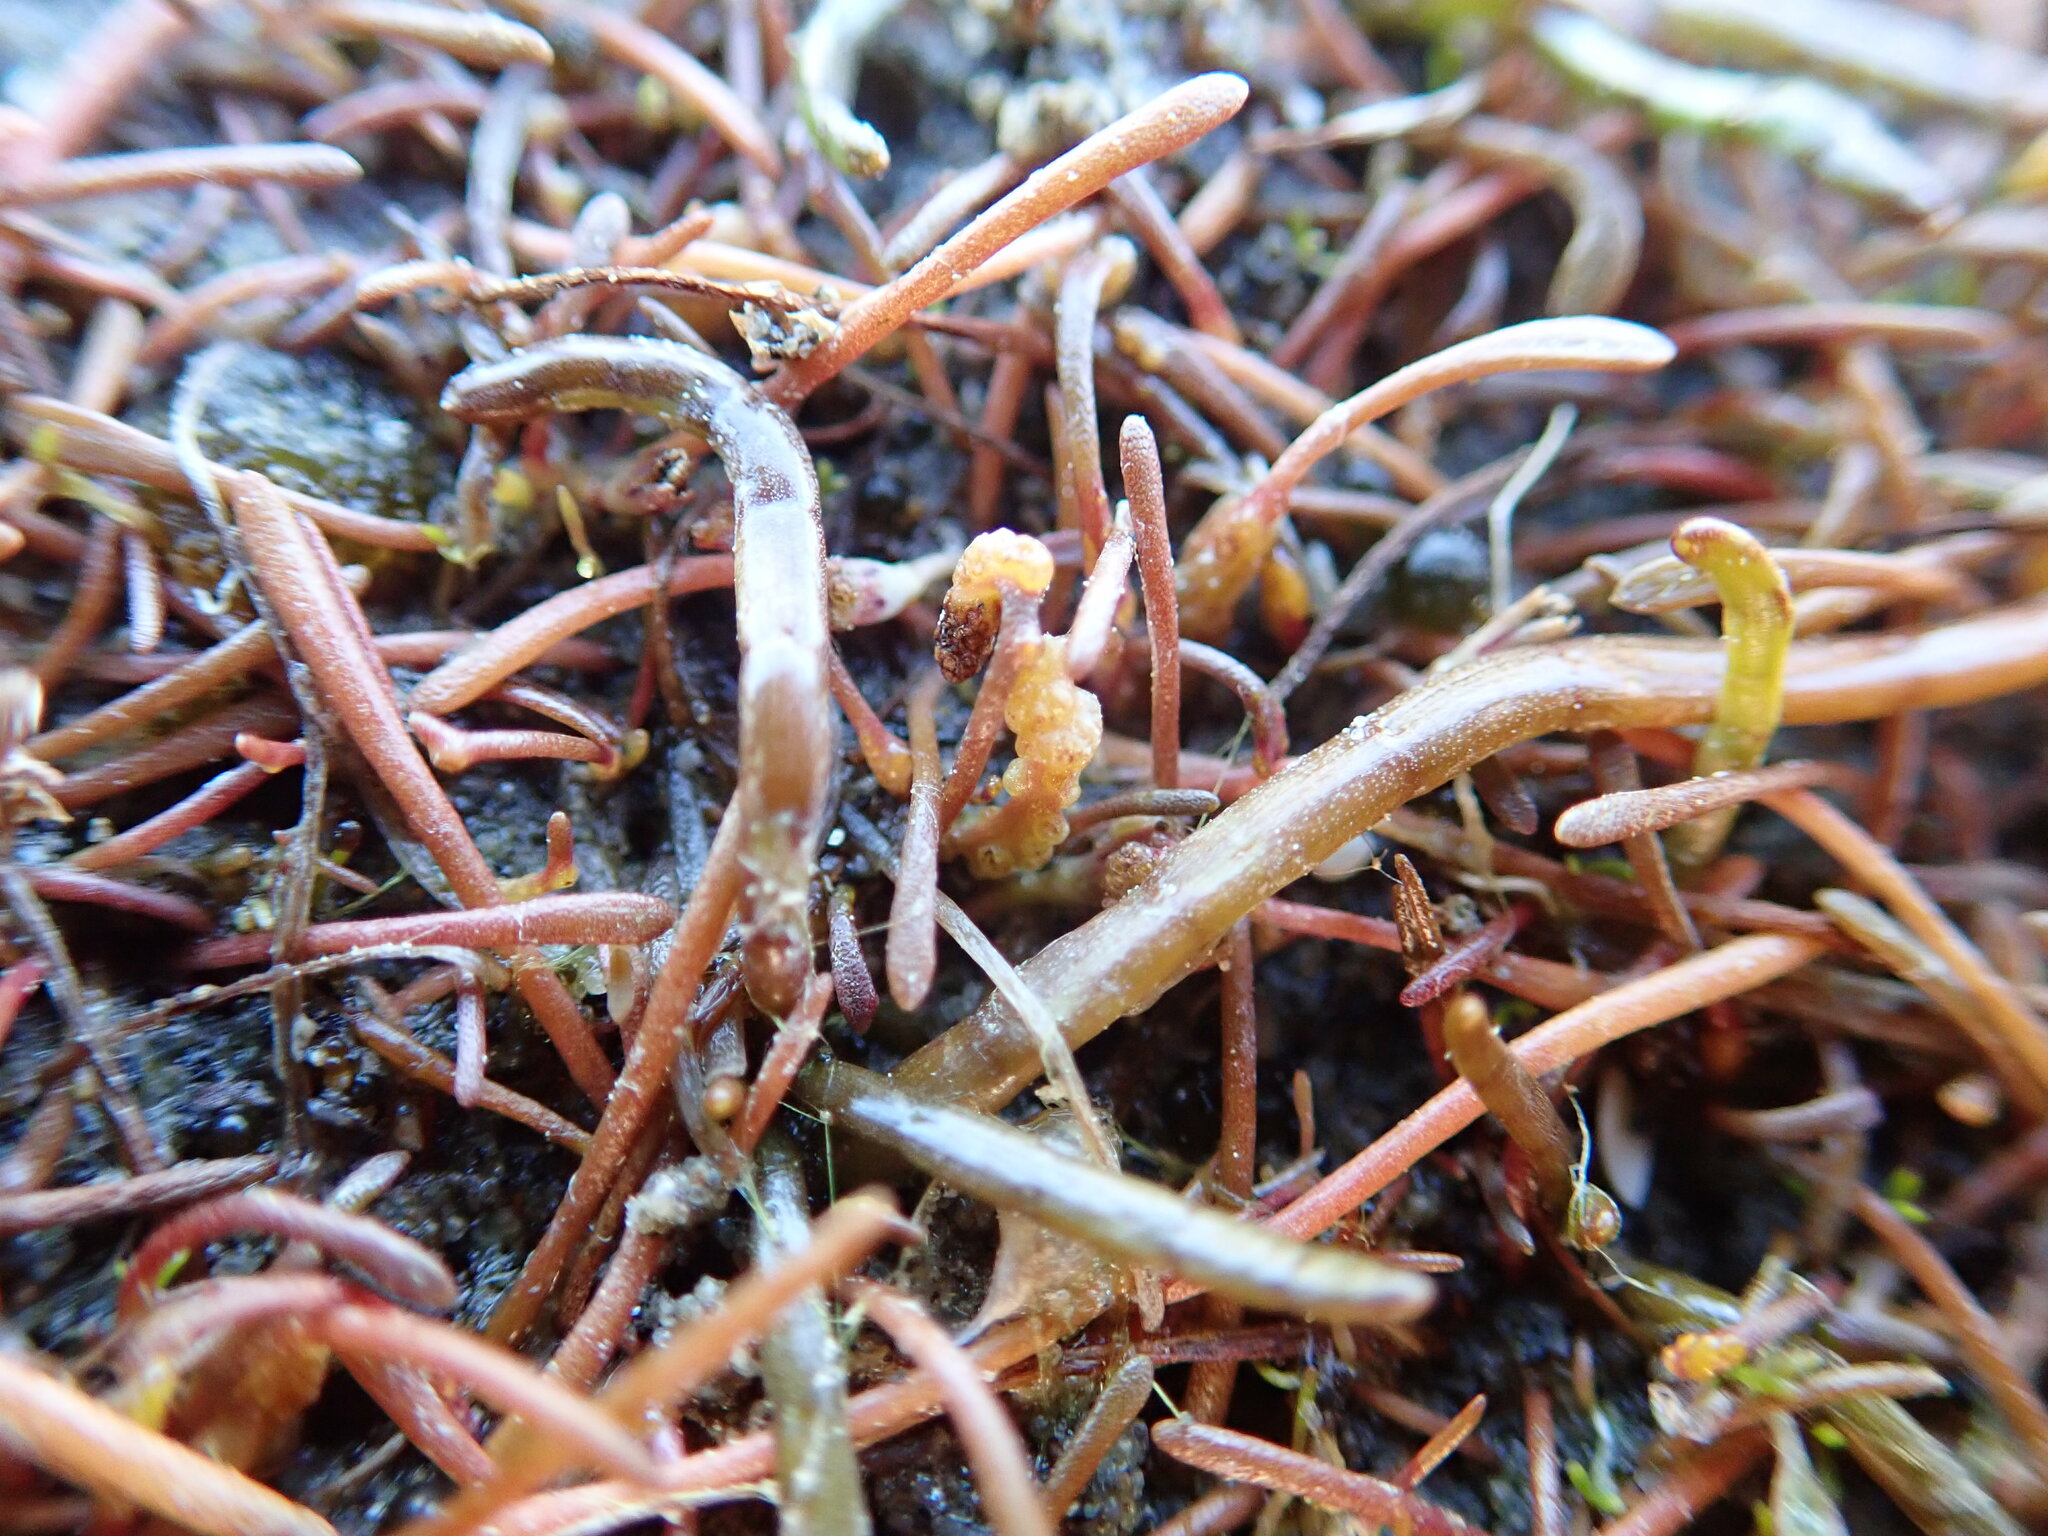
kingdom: Fungi
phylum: Chytridiomycota
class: Chytridiomycetes
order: Chytridiales
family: Synchytriaceae
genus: Synchytrium
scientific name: Synchytrium limosellae
